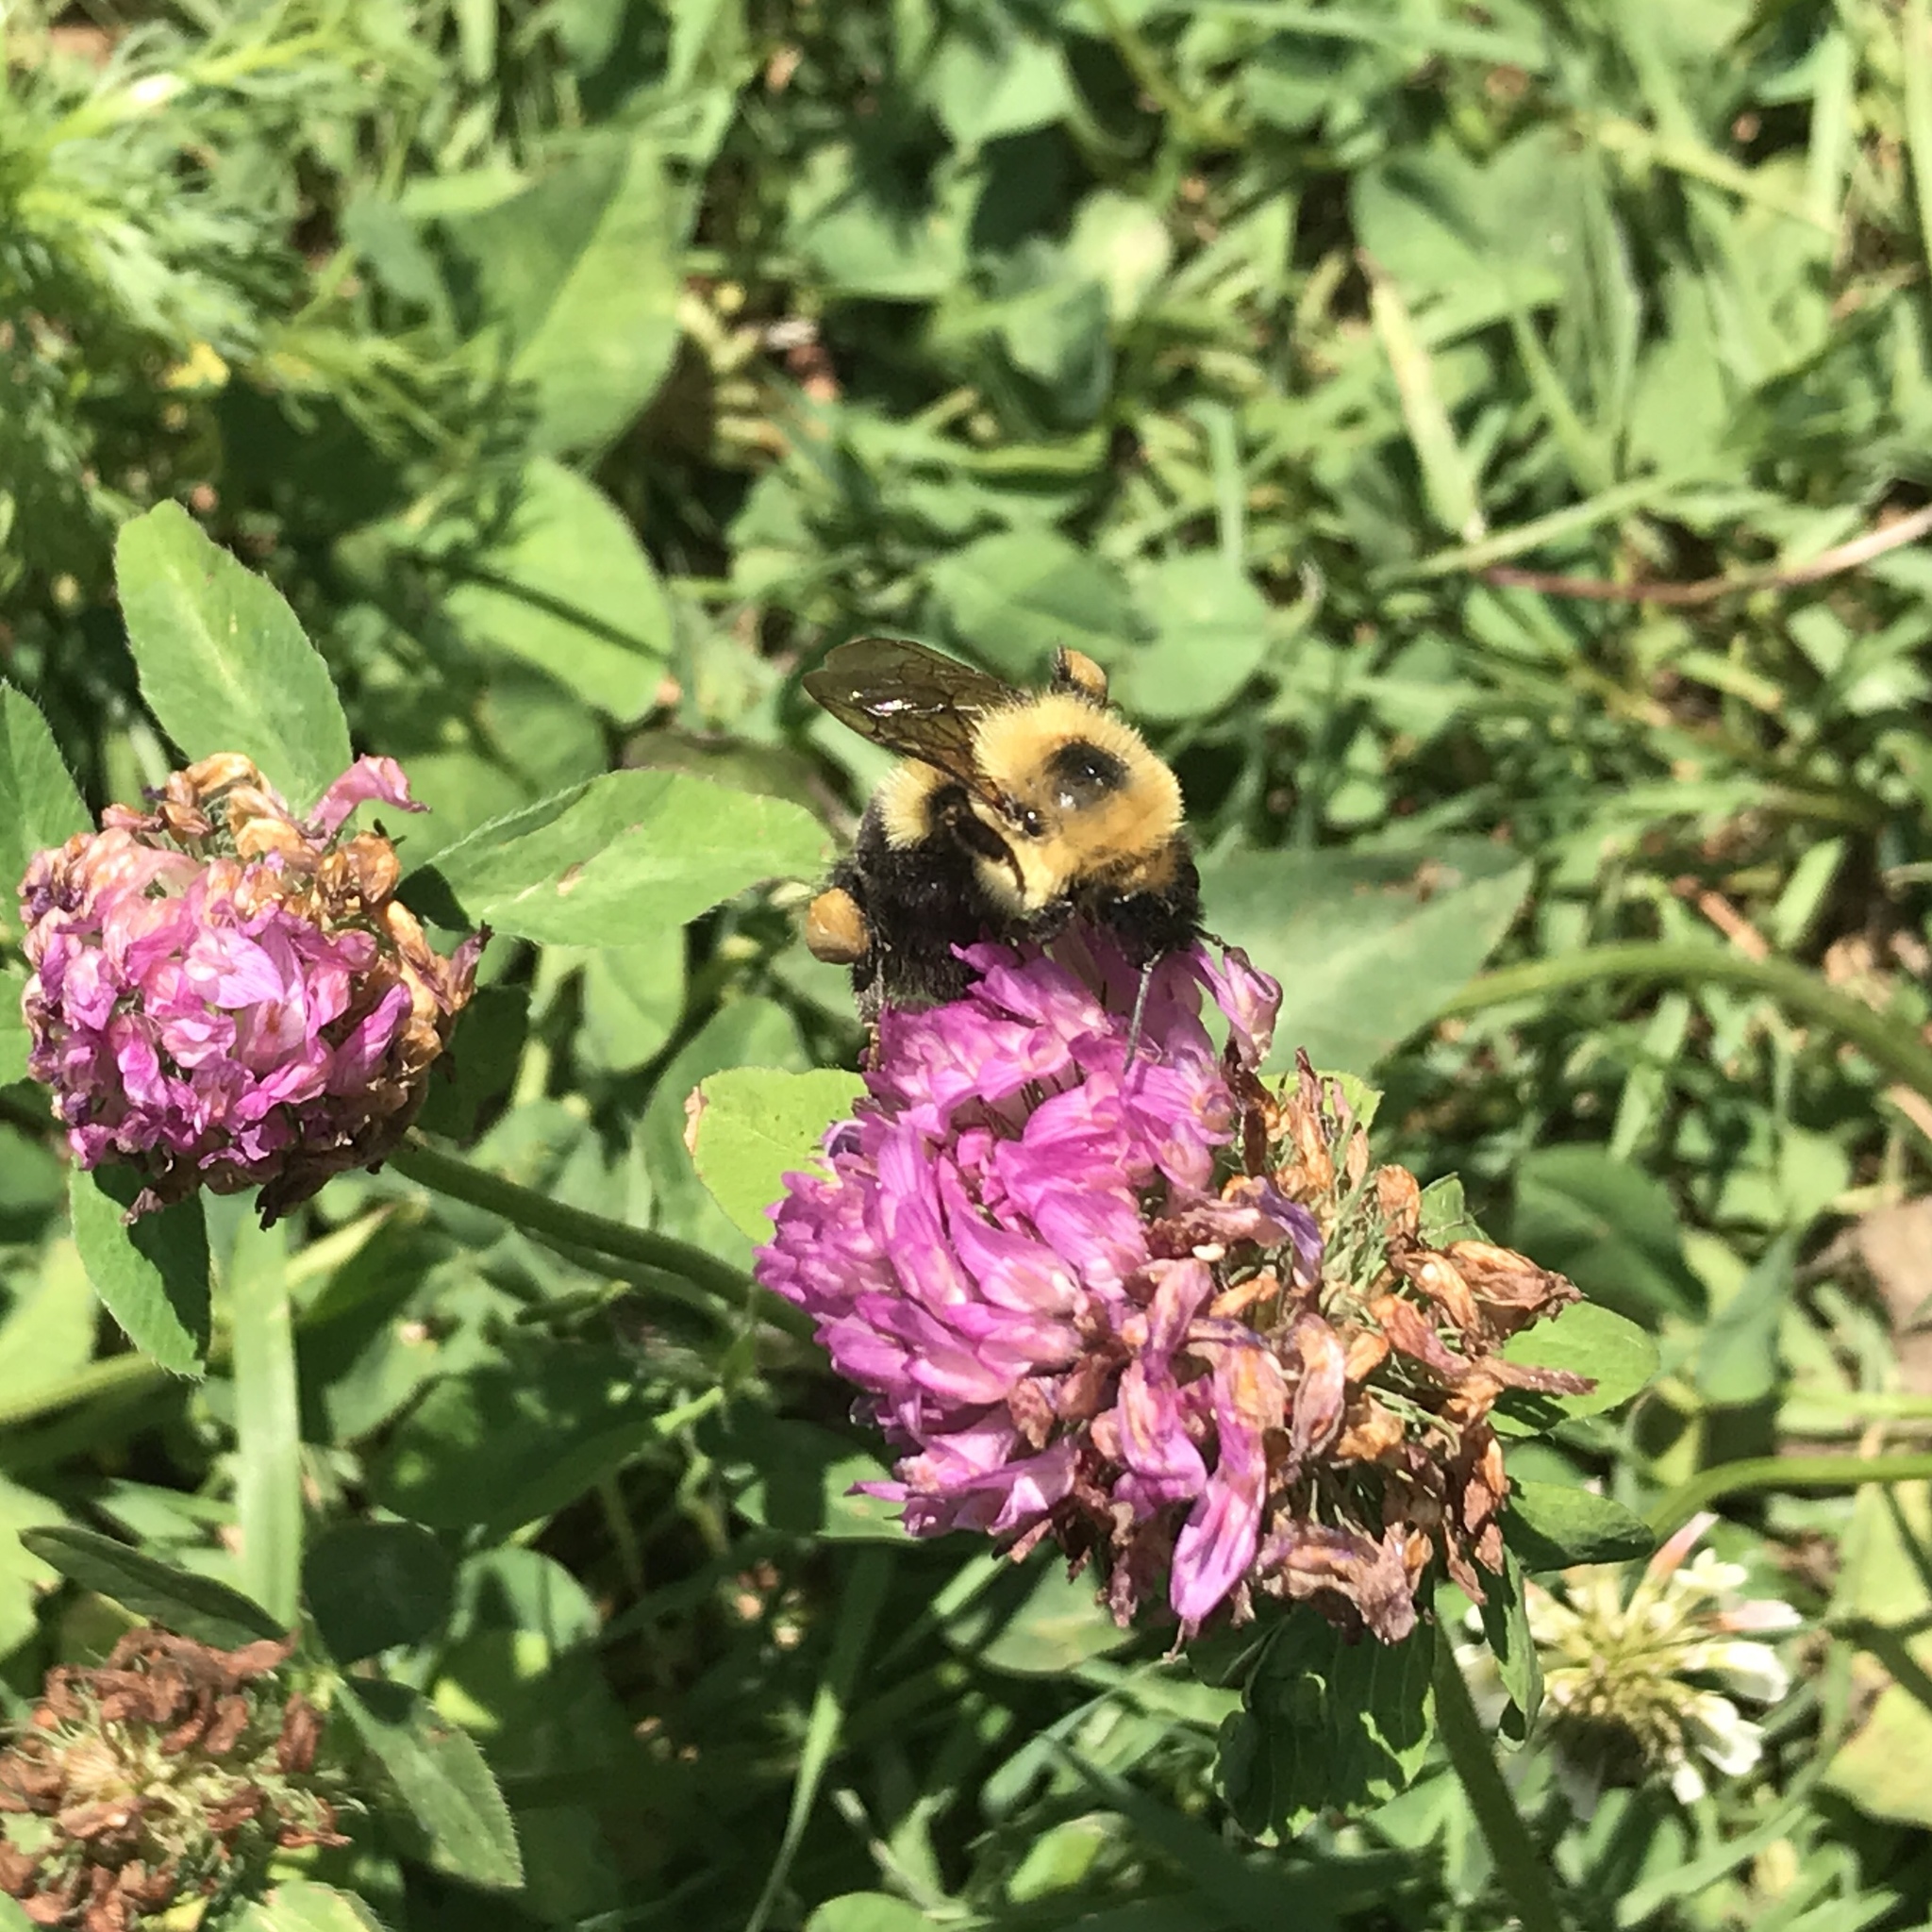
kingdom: Animalia
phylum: Arthropoda
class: Insecta
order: Hymenoptera
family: Apidae
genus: Bombus
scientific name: Bombus bimaculatus
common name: Two-spotted bumble bee
